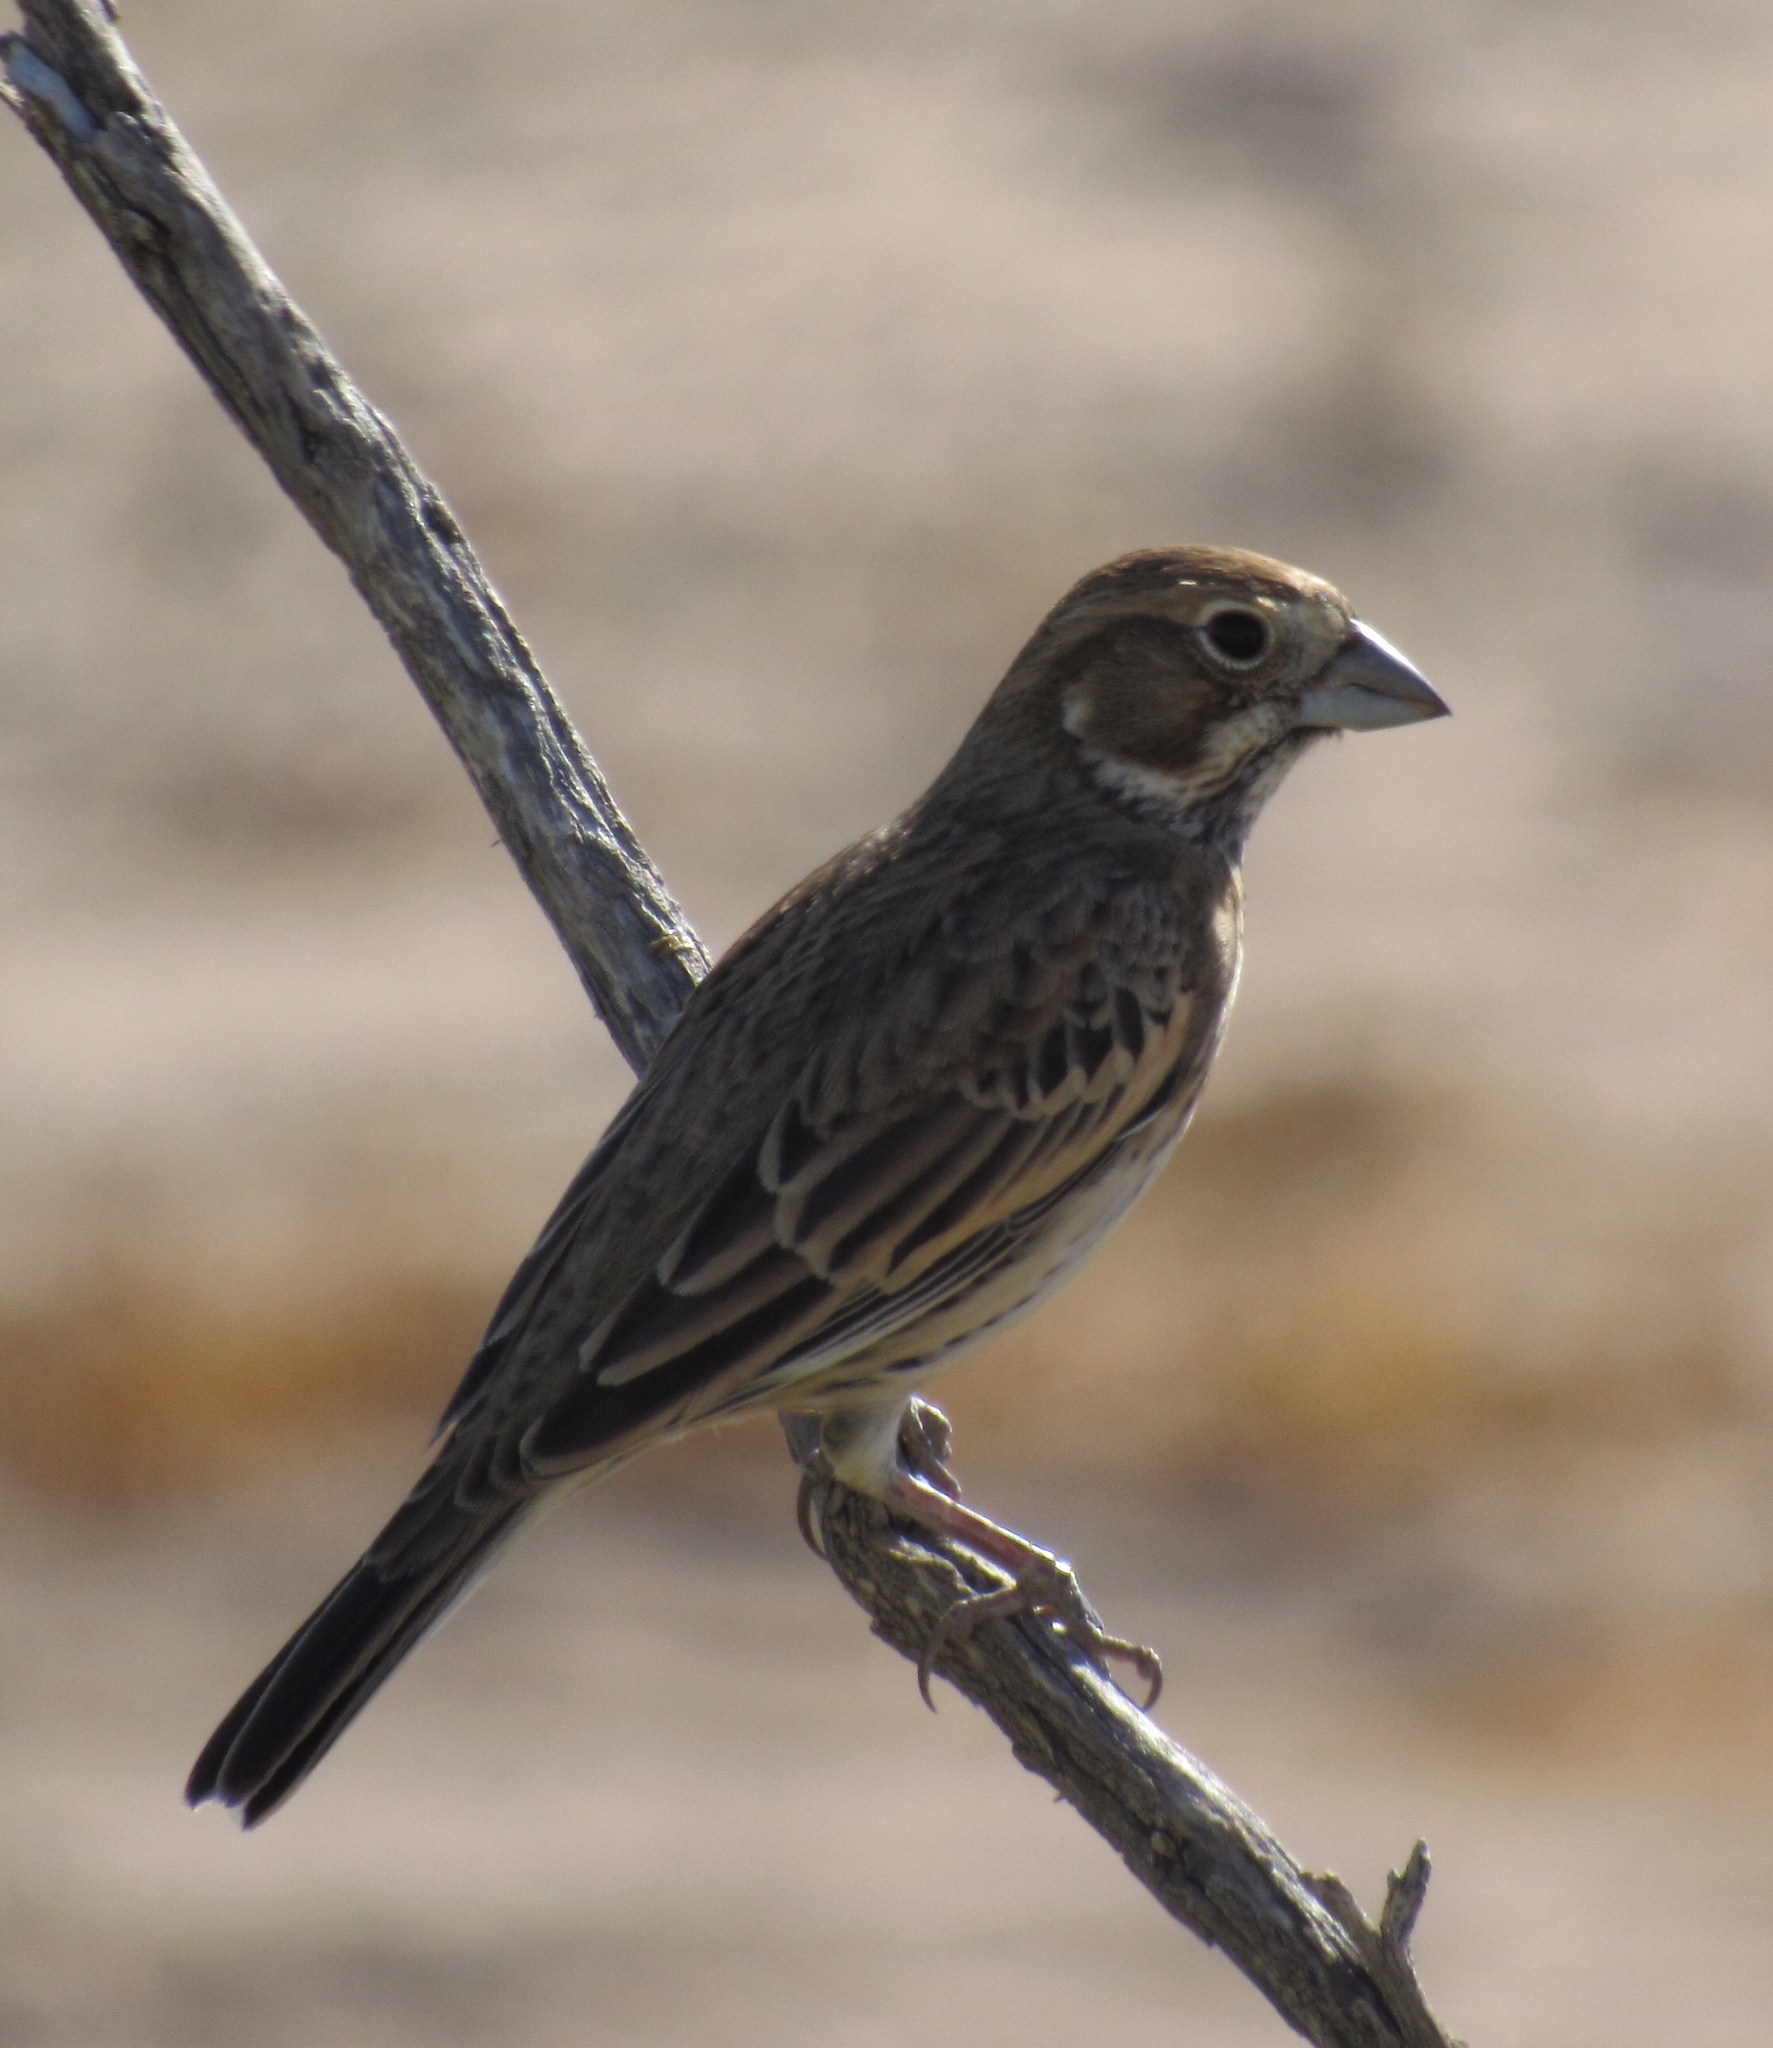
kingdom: Animalia
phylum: Chordata
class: Aves
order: Passeriformes
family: Passerellidae
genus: Calamospiza
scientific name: Calamospiza melanocorys
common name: Lark bunting
